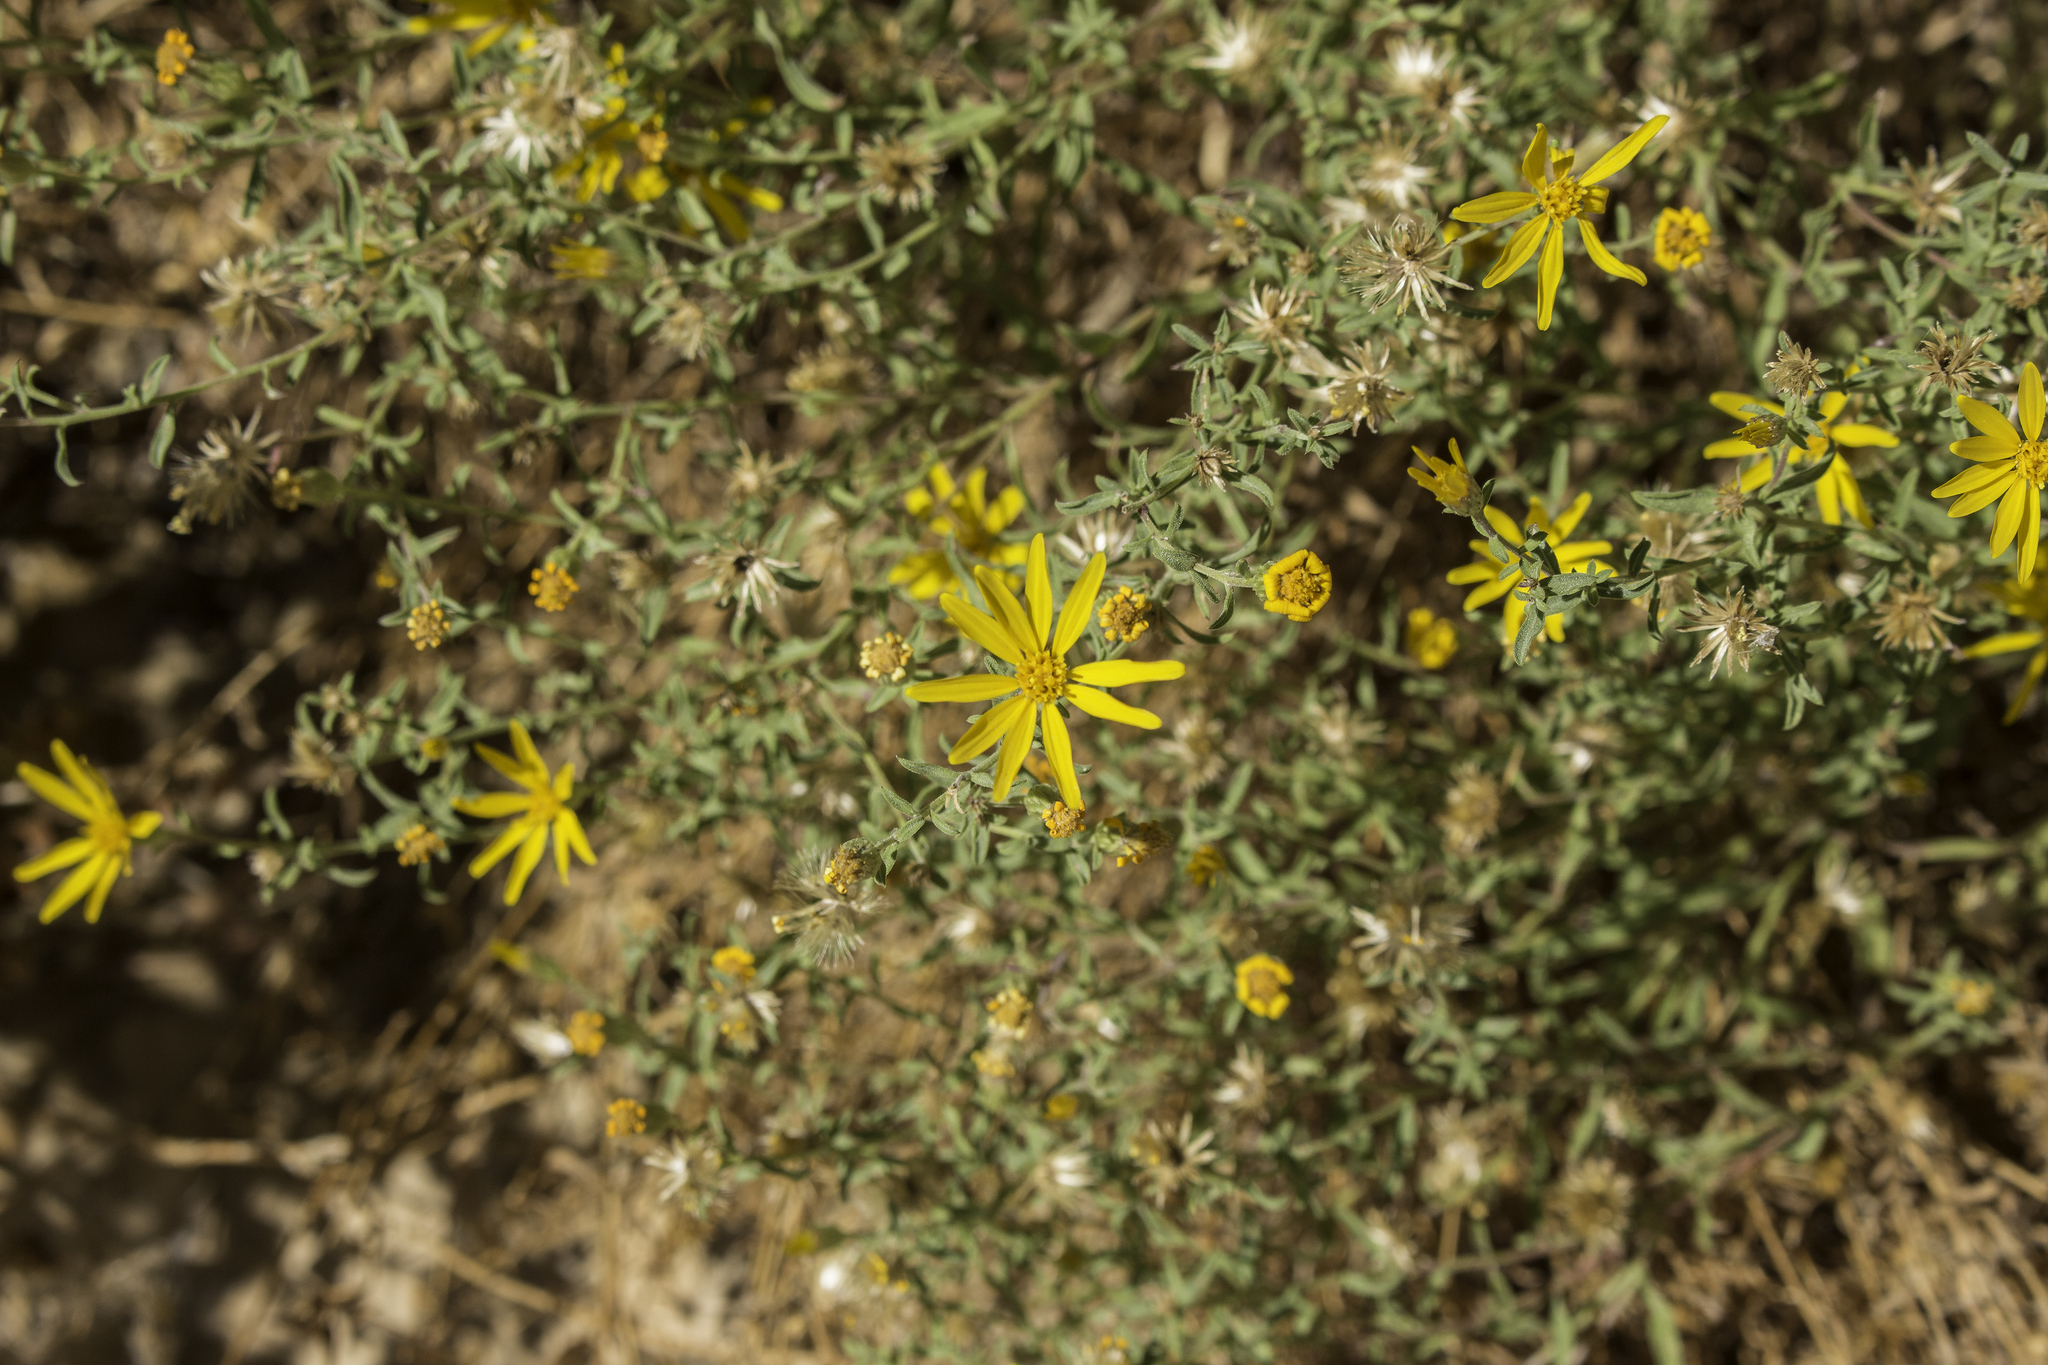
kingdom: Plantae
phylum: Tracheophyta
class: Magnoliopsida
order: Asterales
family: Asteraceae
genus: Heterotheca
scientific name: Heterotheca polothrix
